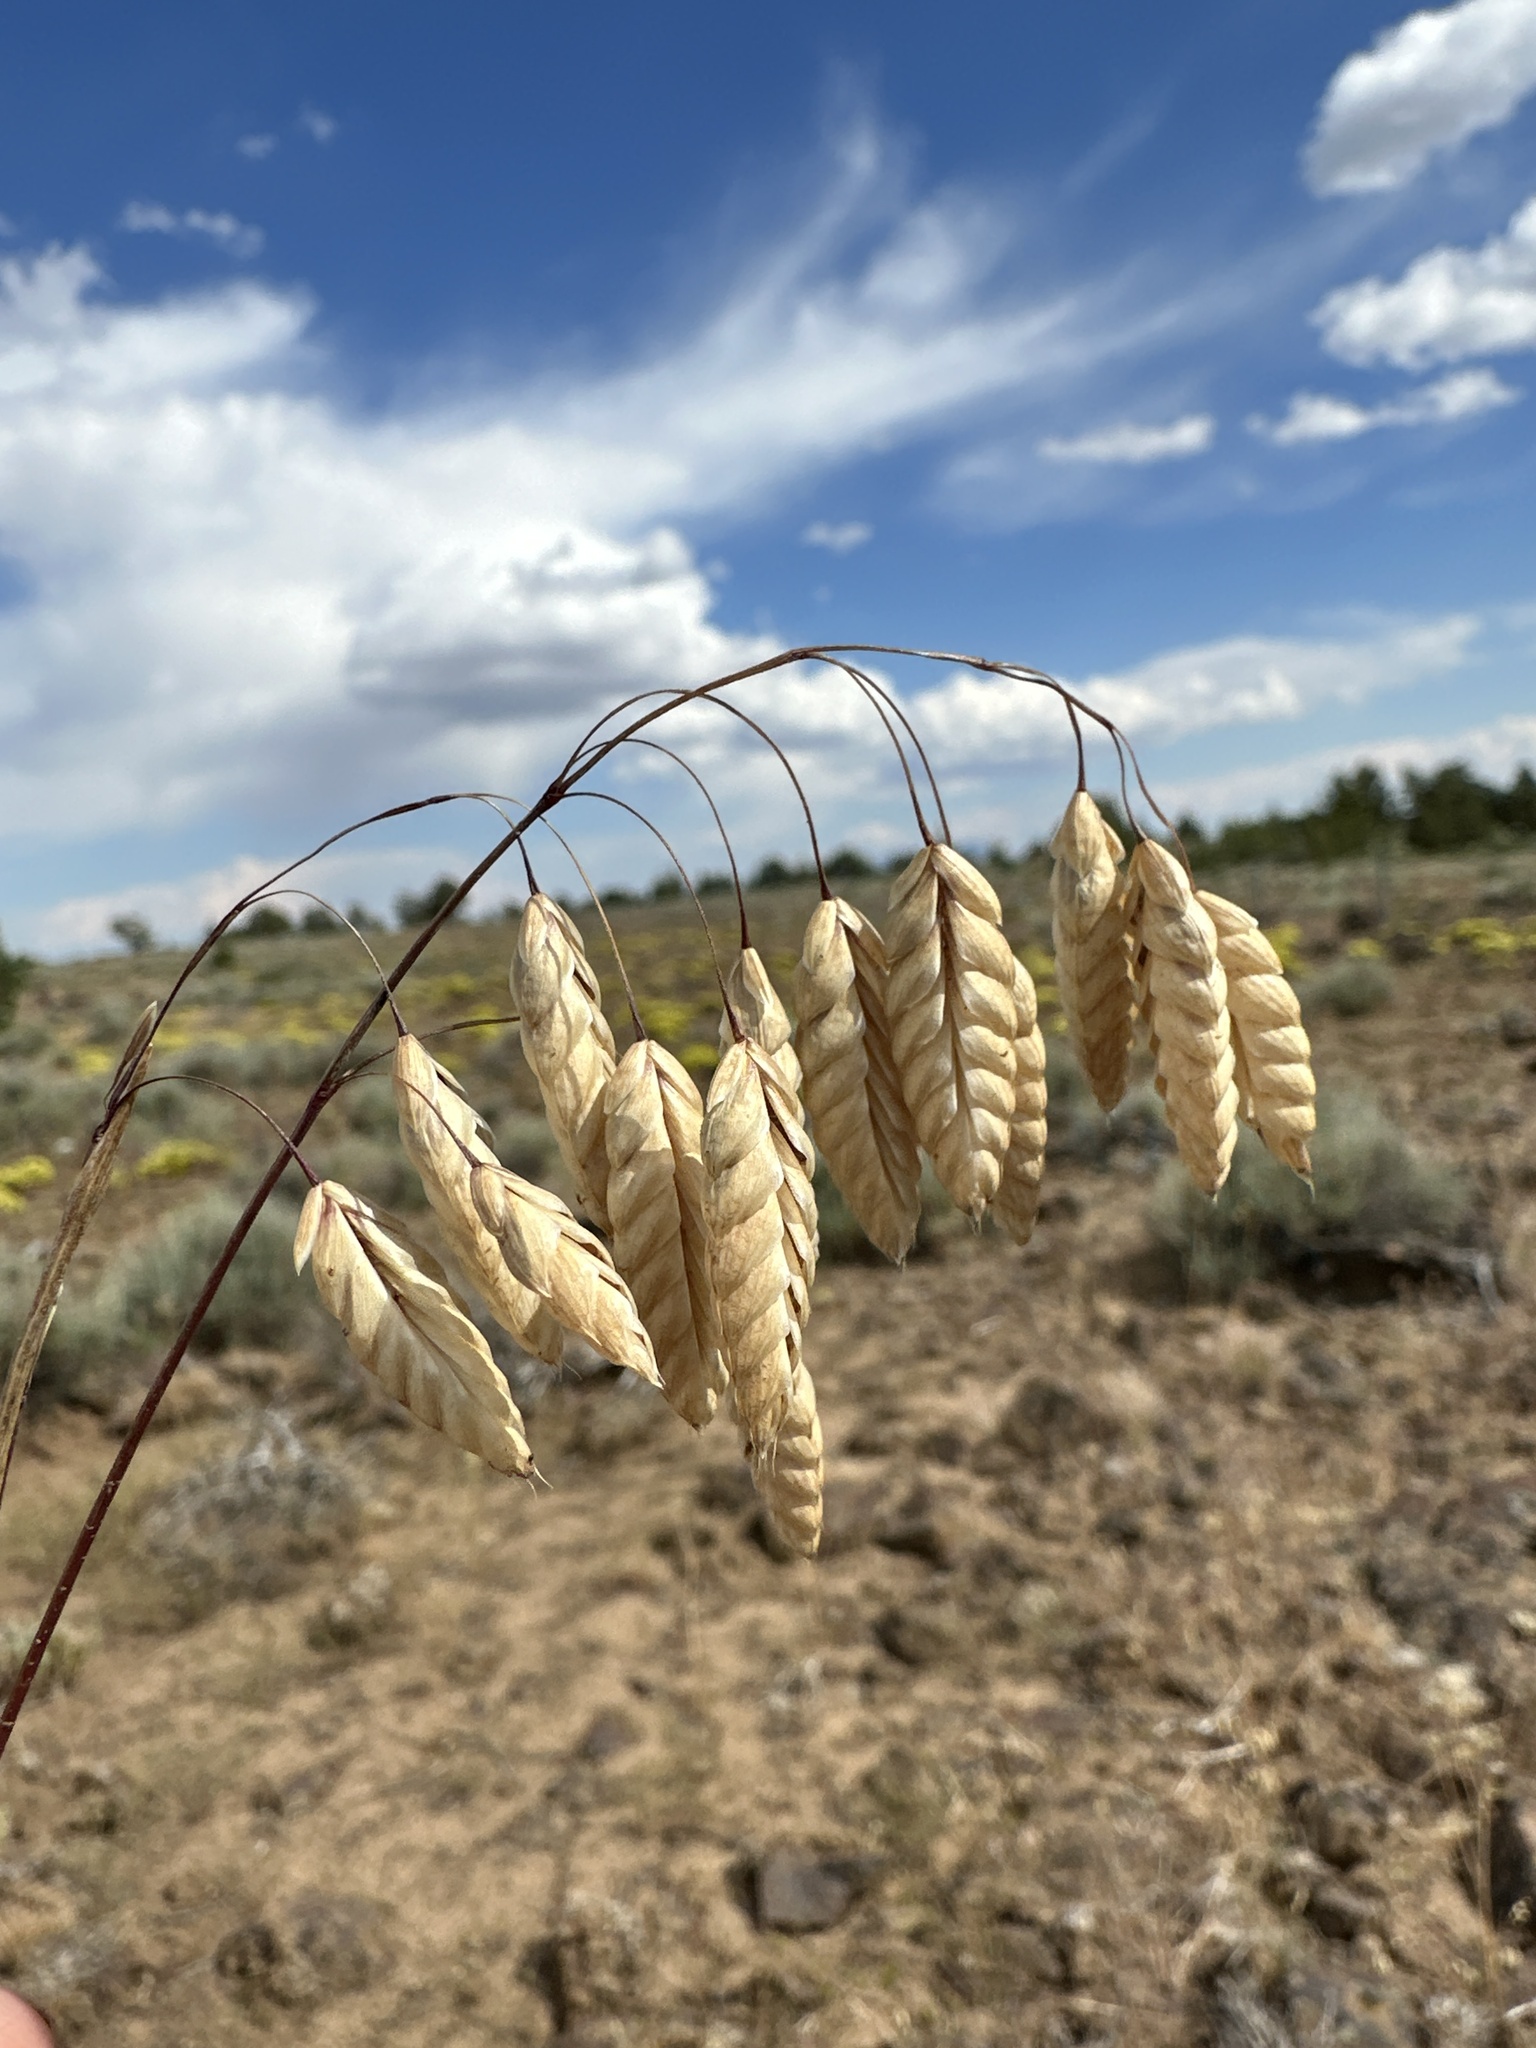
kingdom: Plantae
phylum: Tracheophyta
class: Liliopsida
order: Poales
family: Poaceae
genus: Bromus
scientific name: Bromus briziformis
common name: Rattlesnake brome
